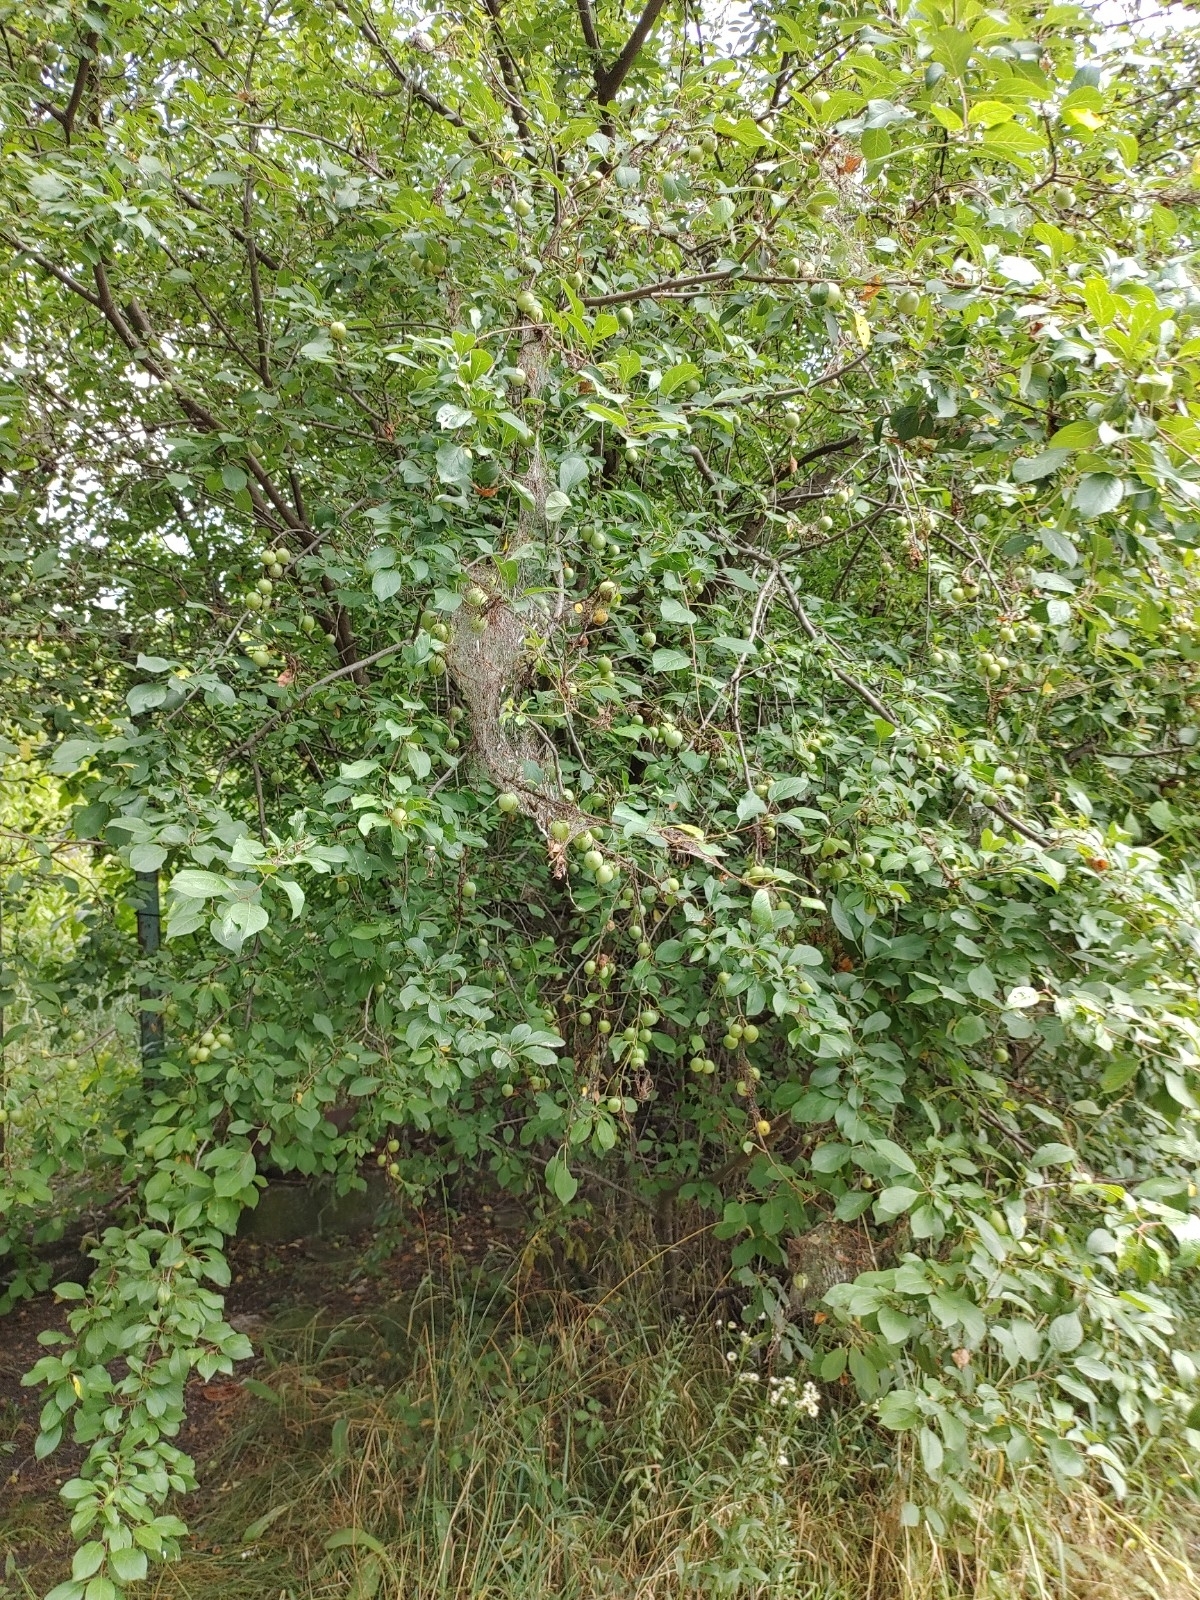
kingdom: Plantae
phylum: Tracheophyta
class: Magnoliopsida
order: Rosales
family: Rosaceae
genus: Prunus
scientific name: Prunus cerasifera
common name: Cherry plum
